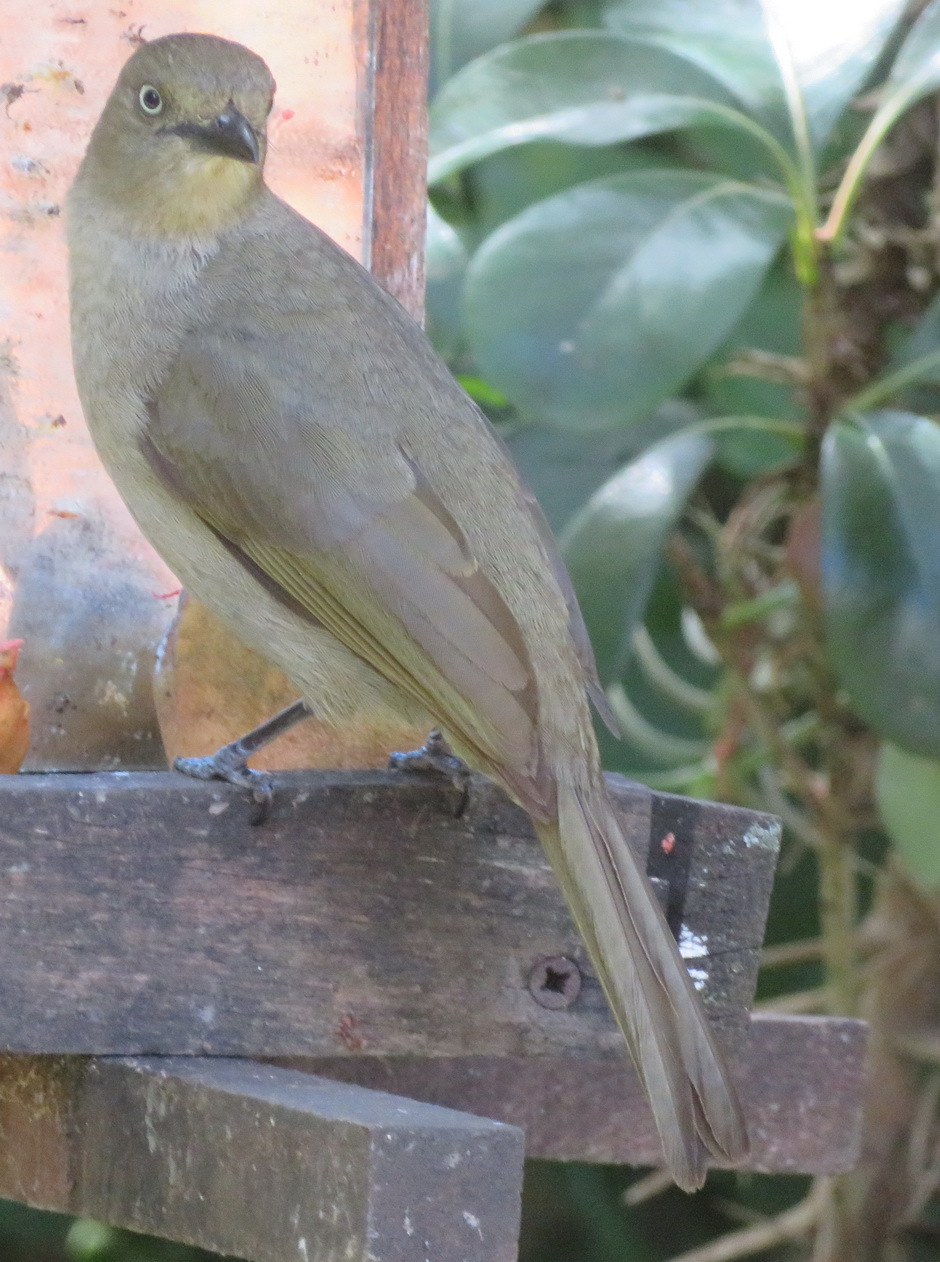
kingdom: Animalia
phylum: Chordata
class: Aves
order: Passeriformes
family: Pycnonotidae
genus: Andropadus
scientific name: Andropadus importunus
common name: Sombre greenbul
